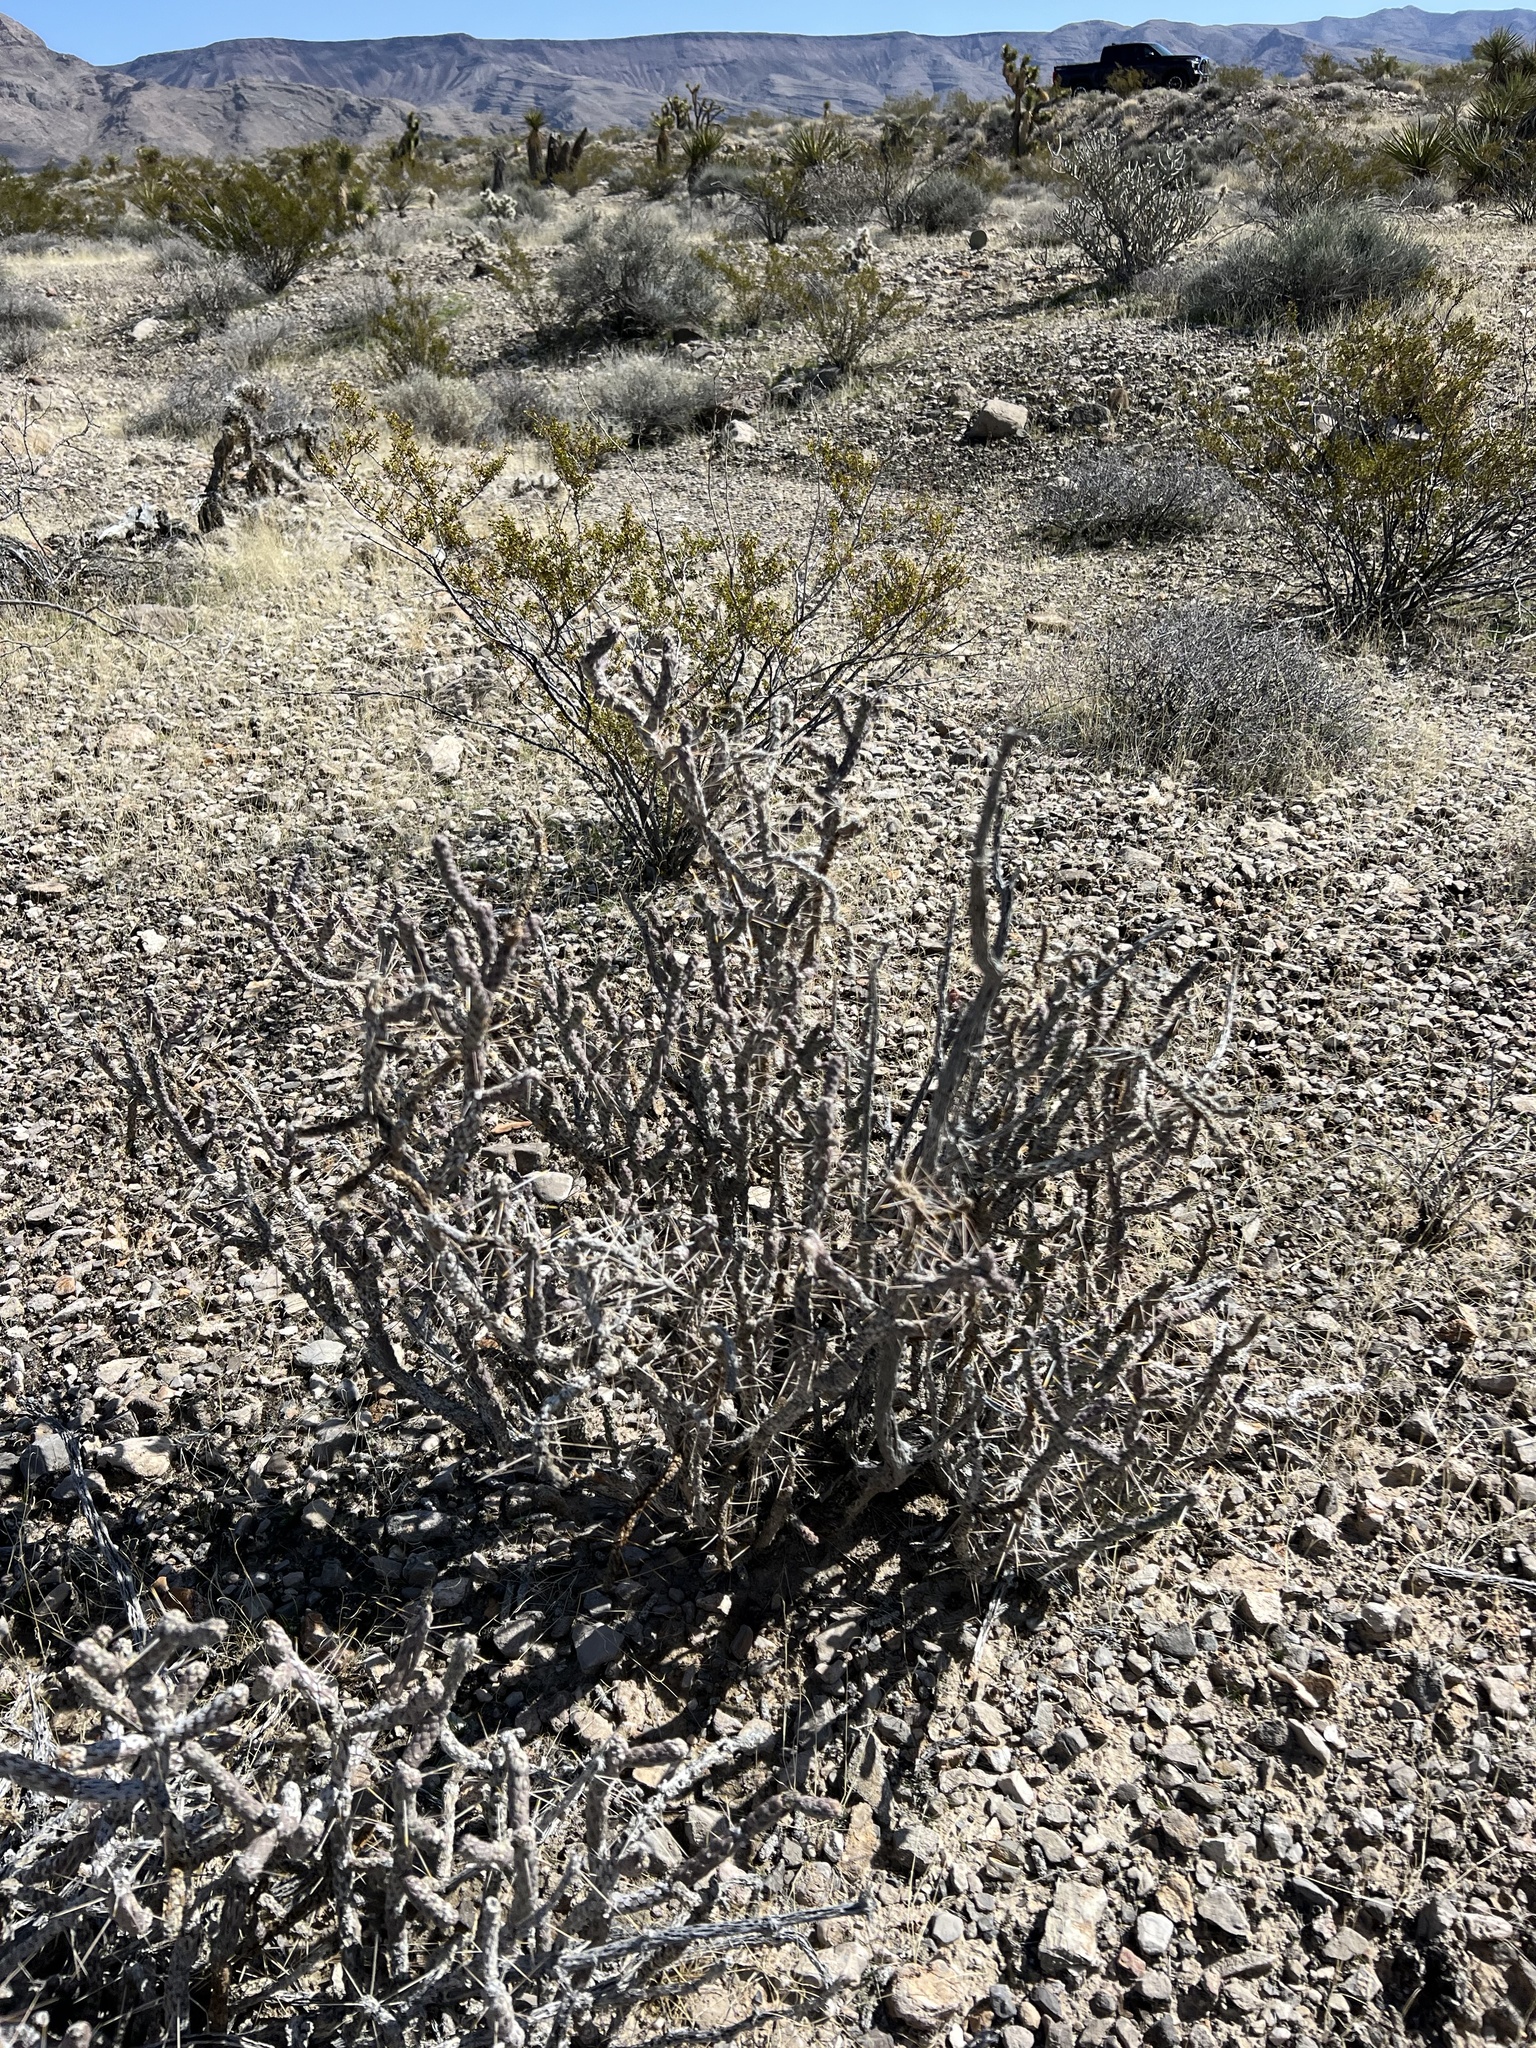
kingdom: Plantae
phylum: Tracheophyta
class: Magnoliopsida
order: Caryophyllales
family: Cactaceae
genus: Cylindropuntia
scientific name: Cylindropuntia ramosissima
